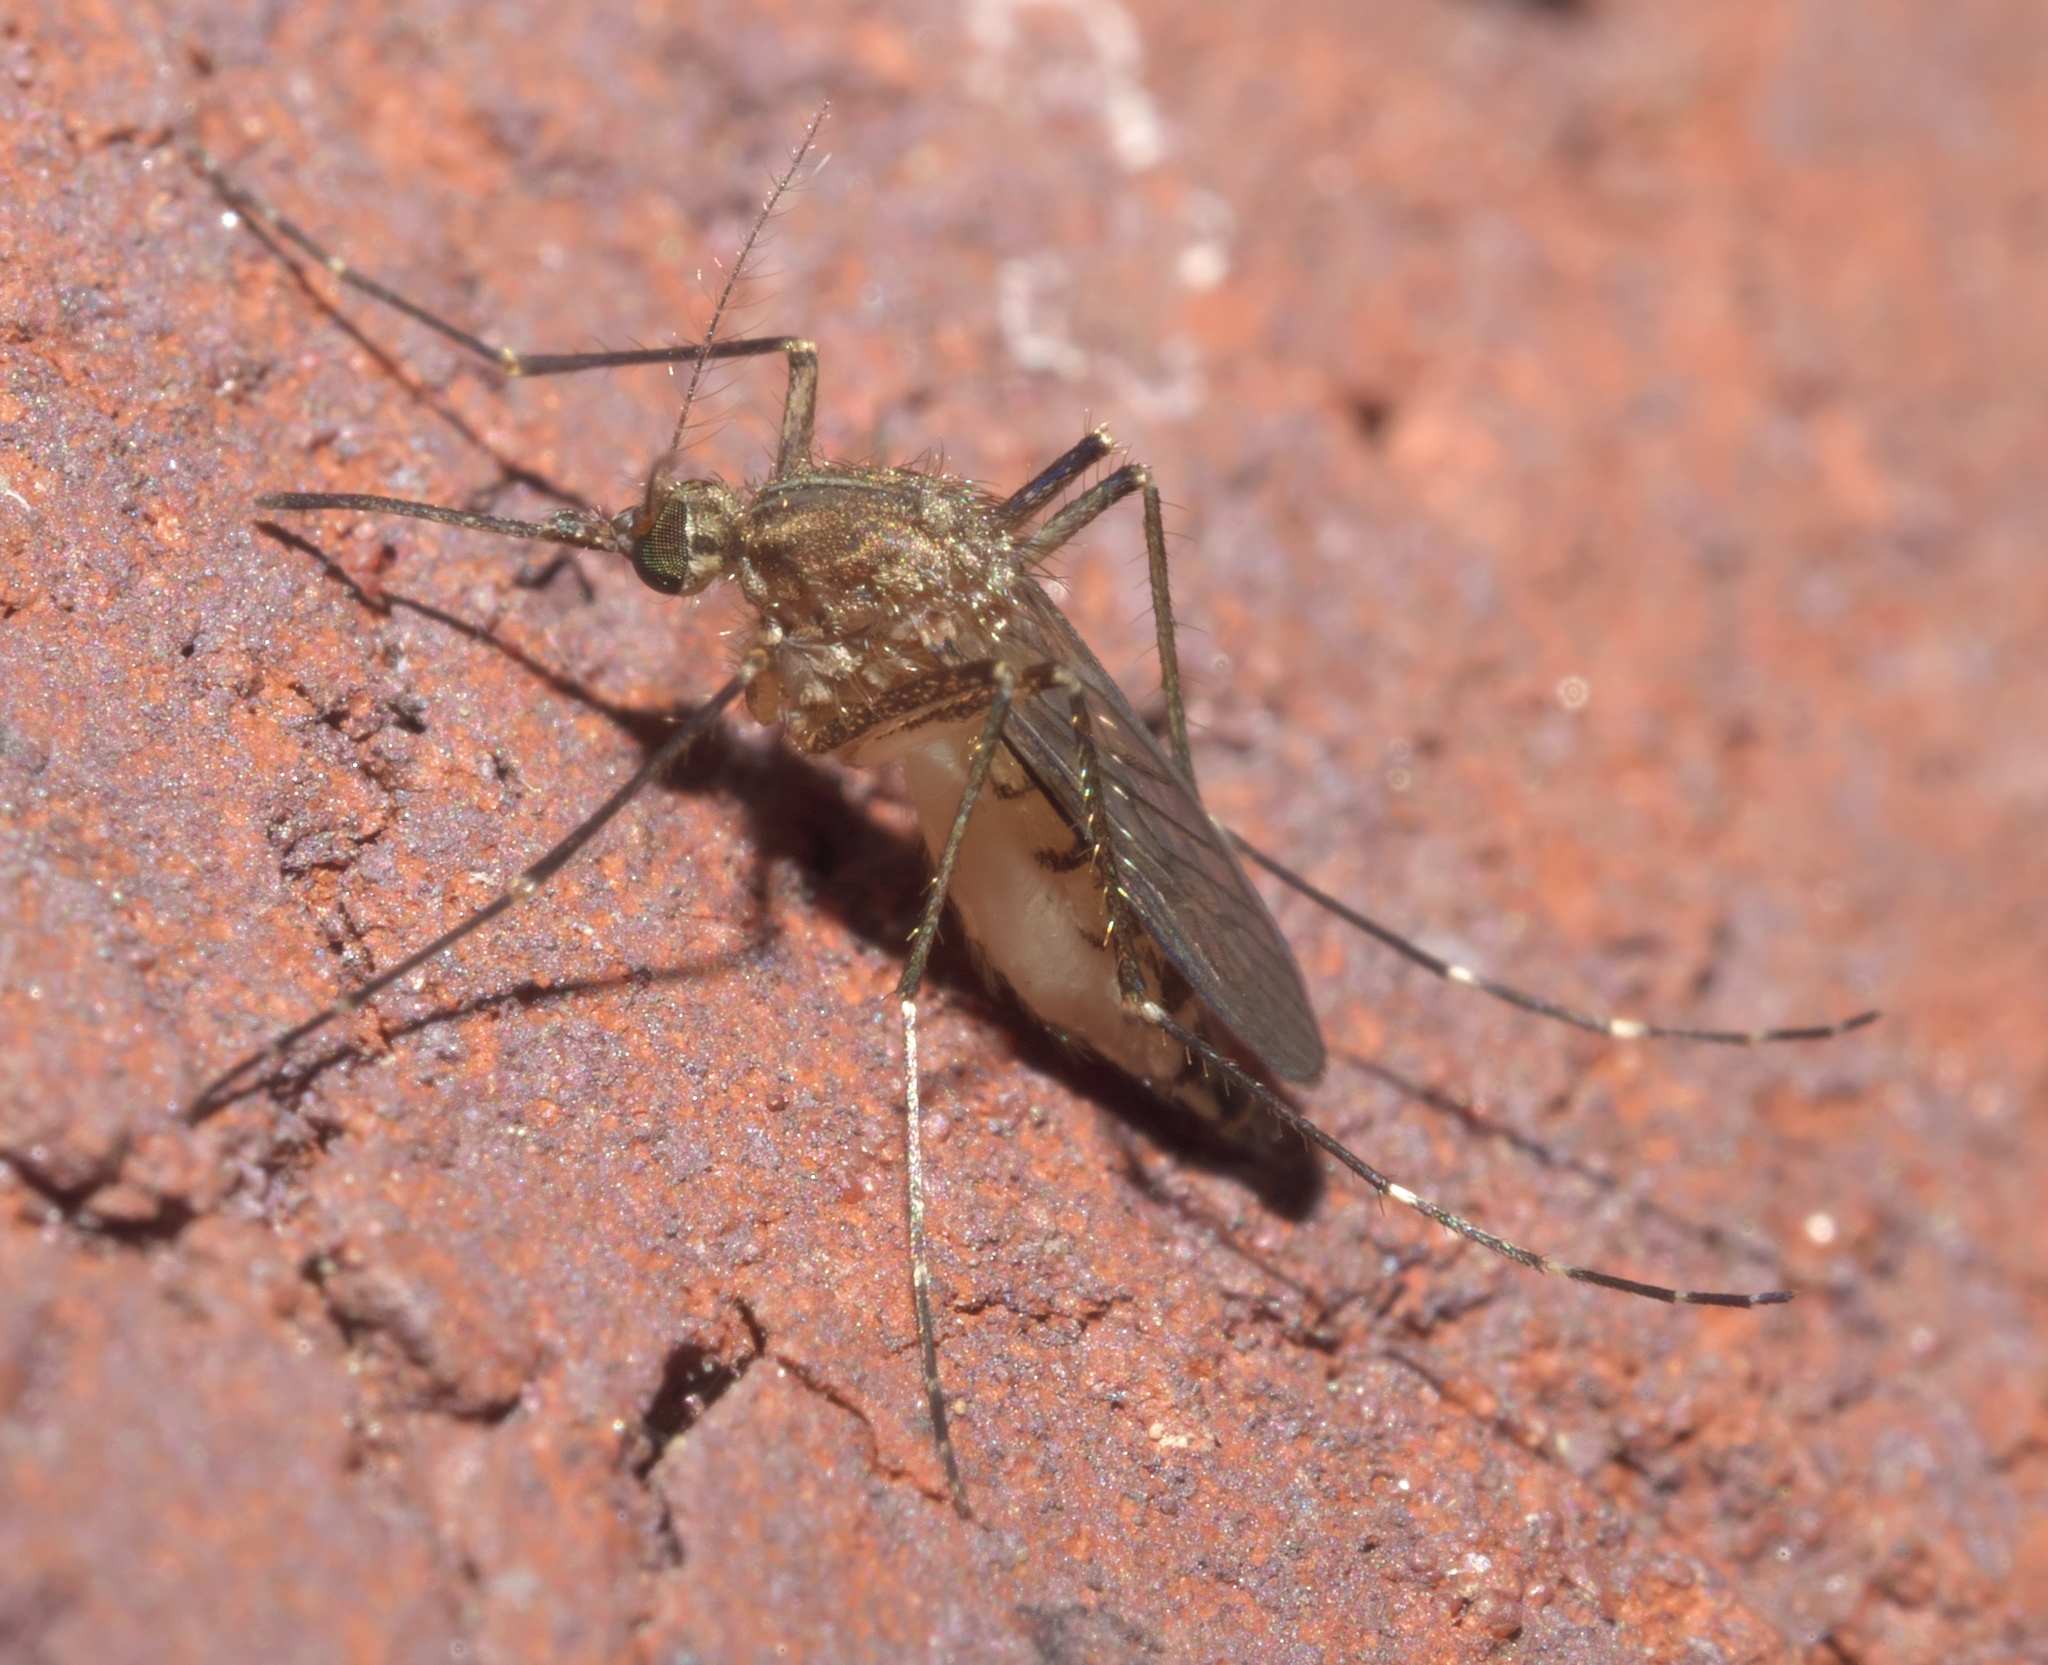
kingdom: Animalia
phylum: Arthropoda
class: Insecta
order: Diptera
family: Culicidae
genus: Aedes
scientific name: Aedes vexans
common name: Inland floodwater mosquito
